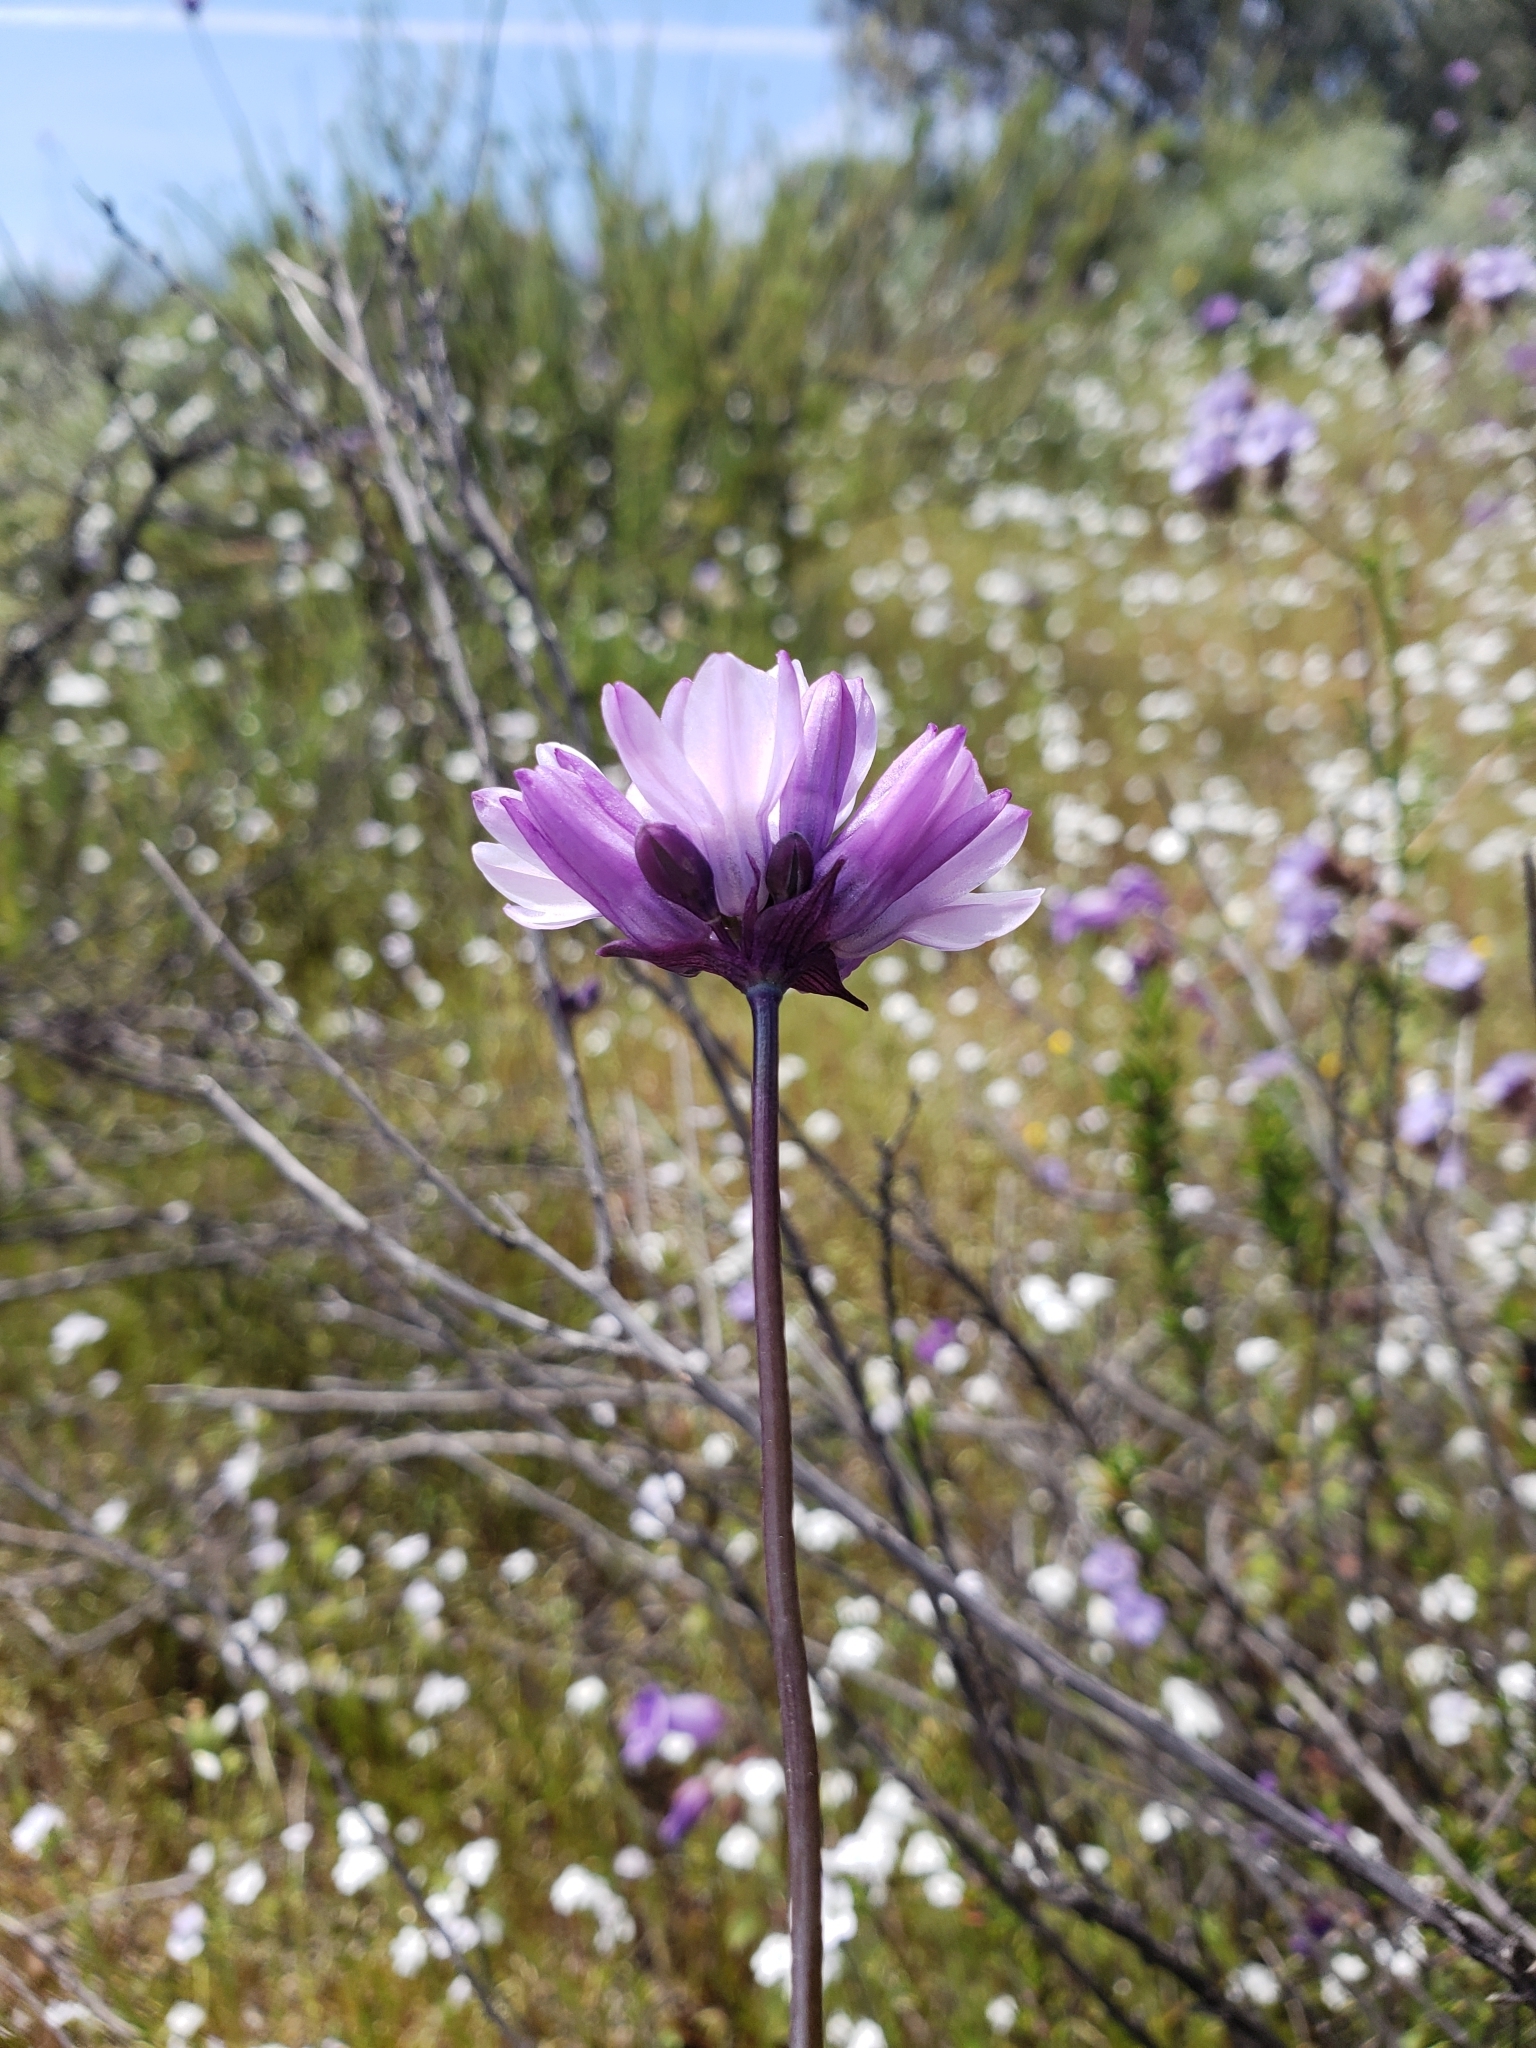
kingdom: Plantae
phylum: Tracheophyta
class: Liliopsida
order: Asparagales
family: Asparagaceae
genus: Dipterostemon
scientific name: Dipterostemon capitatus
